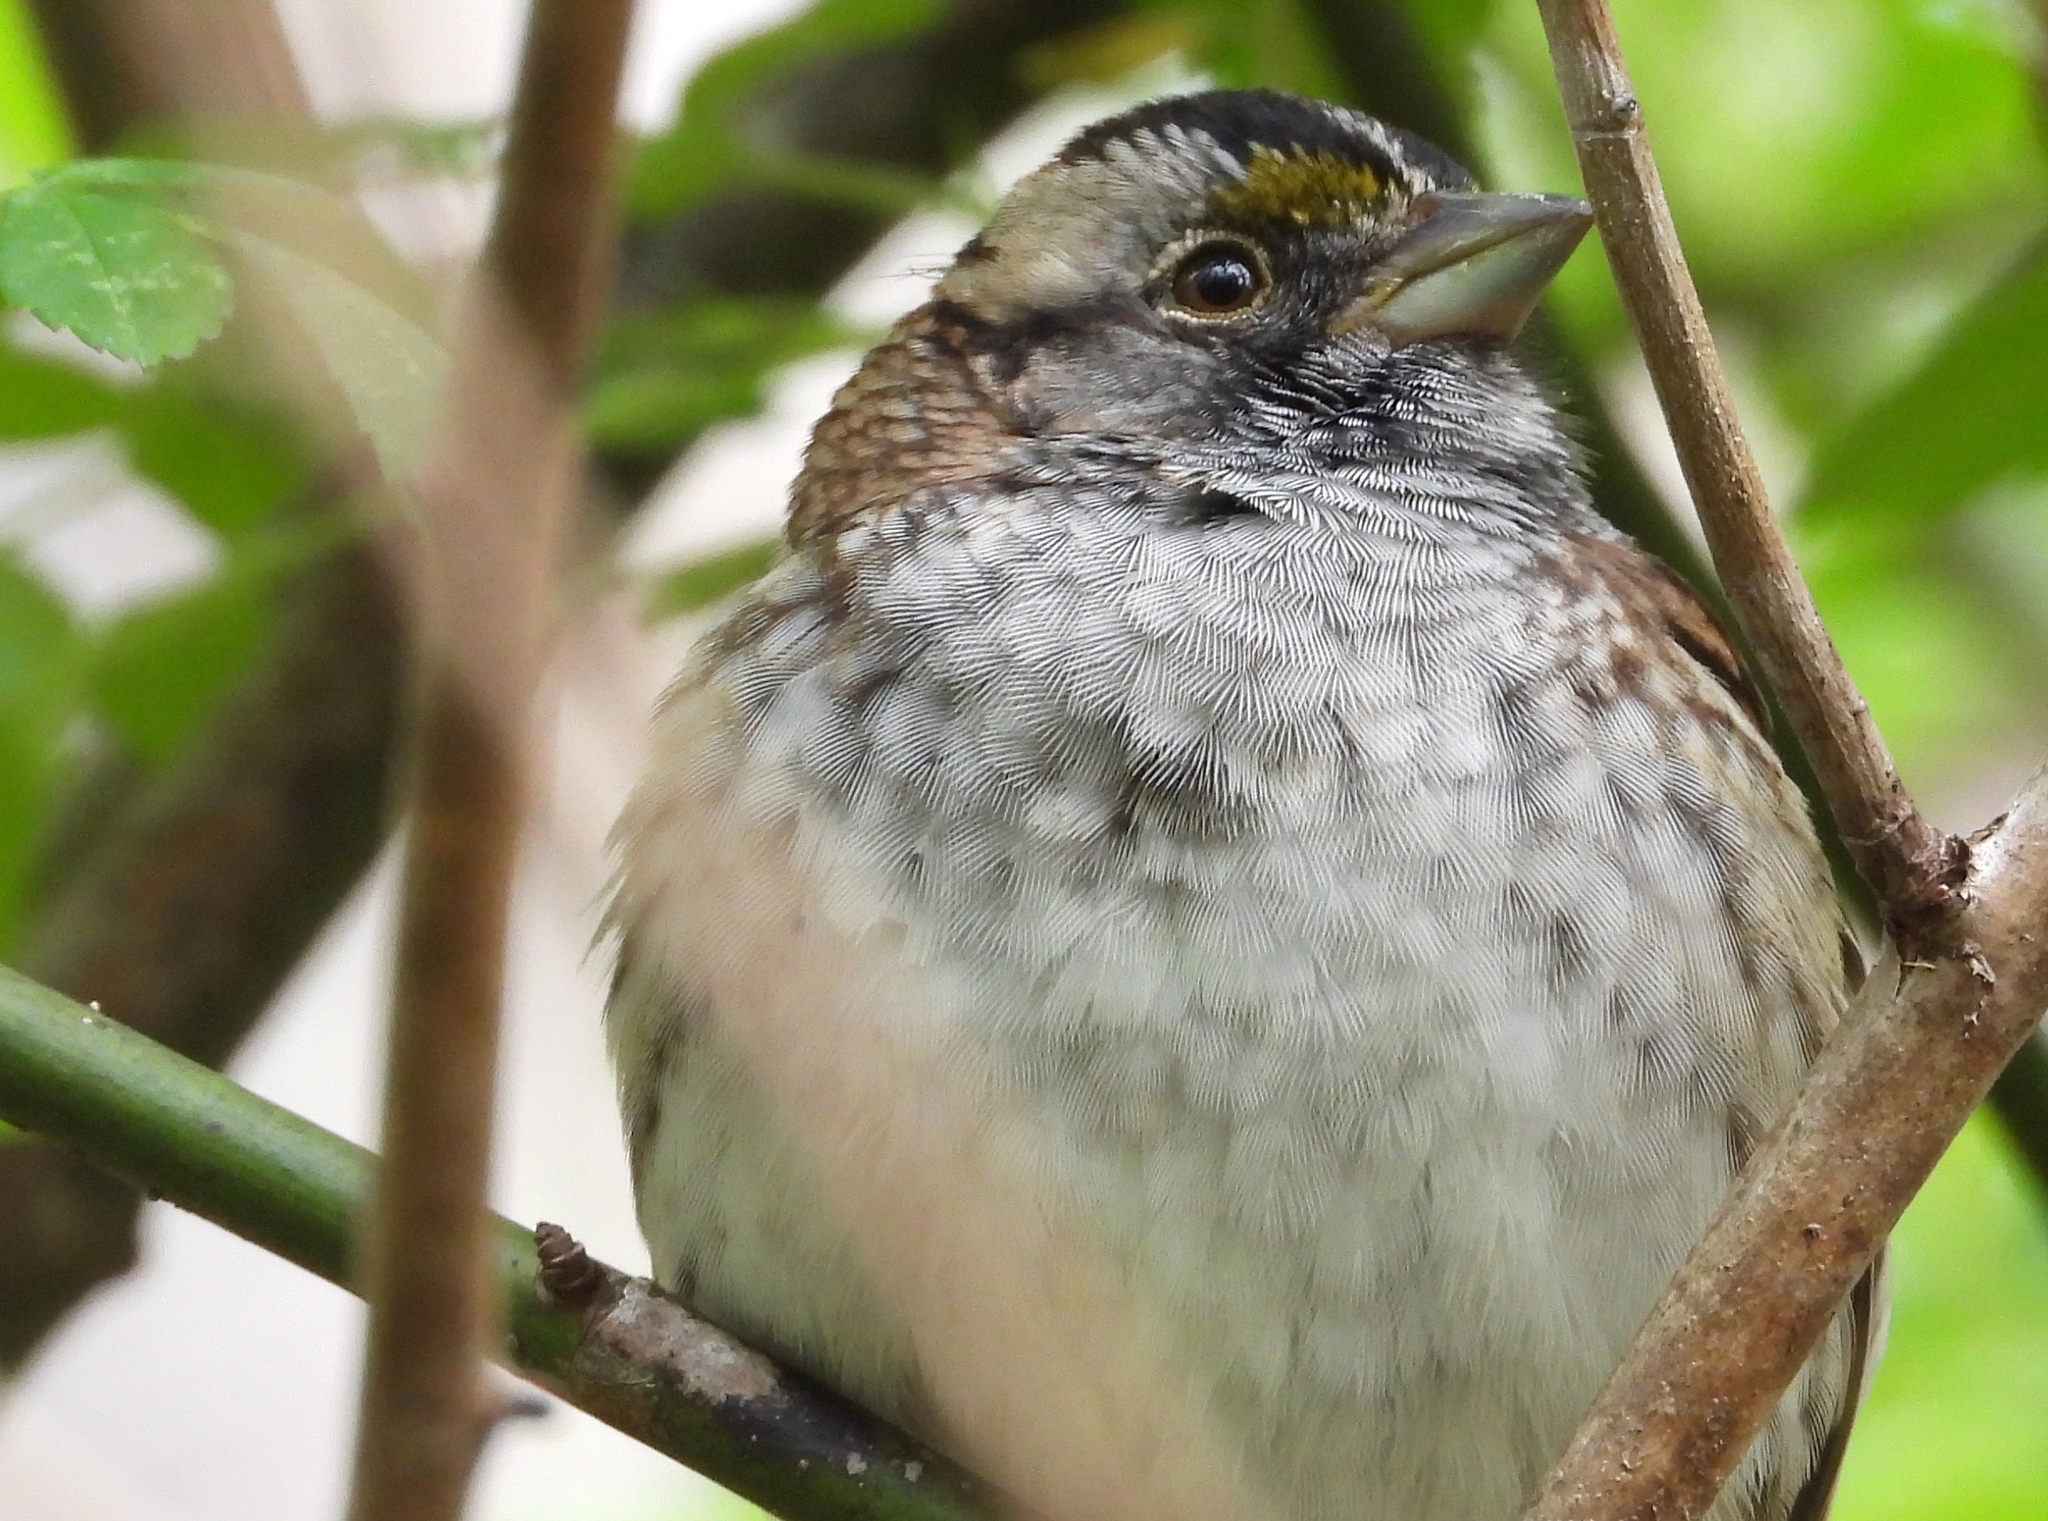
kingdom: Animalia
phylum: Chordata
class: Aves
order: Passeriformes
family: Passerellidae
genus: Zonotrichia
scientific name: Zonotrichia albicollis
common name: White-throated sparrow
